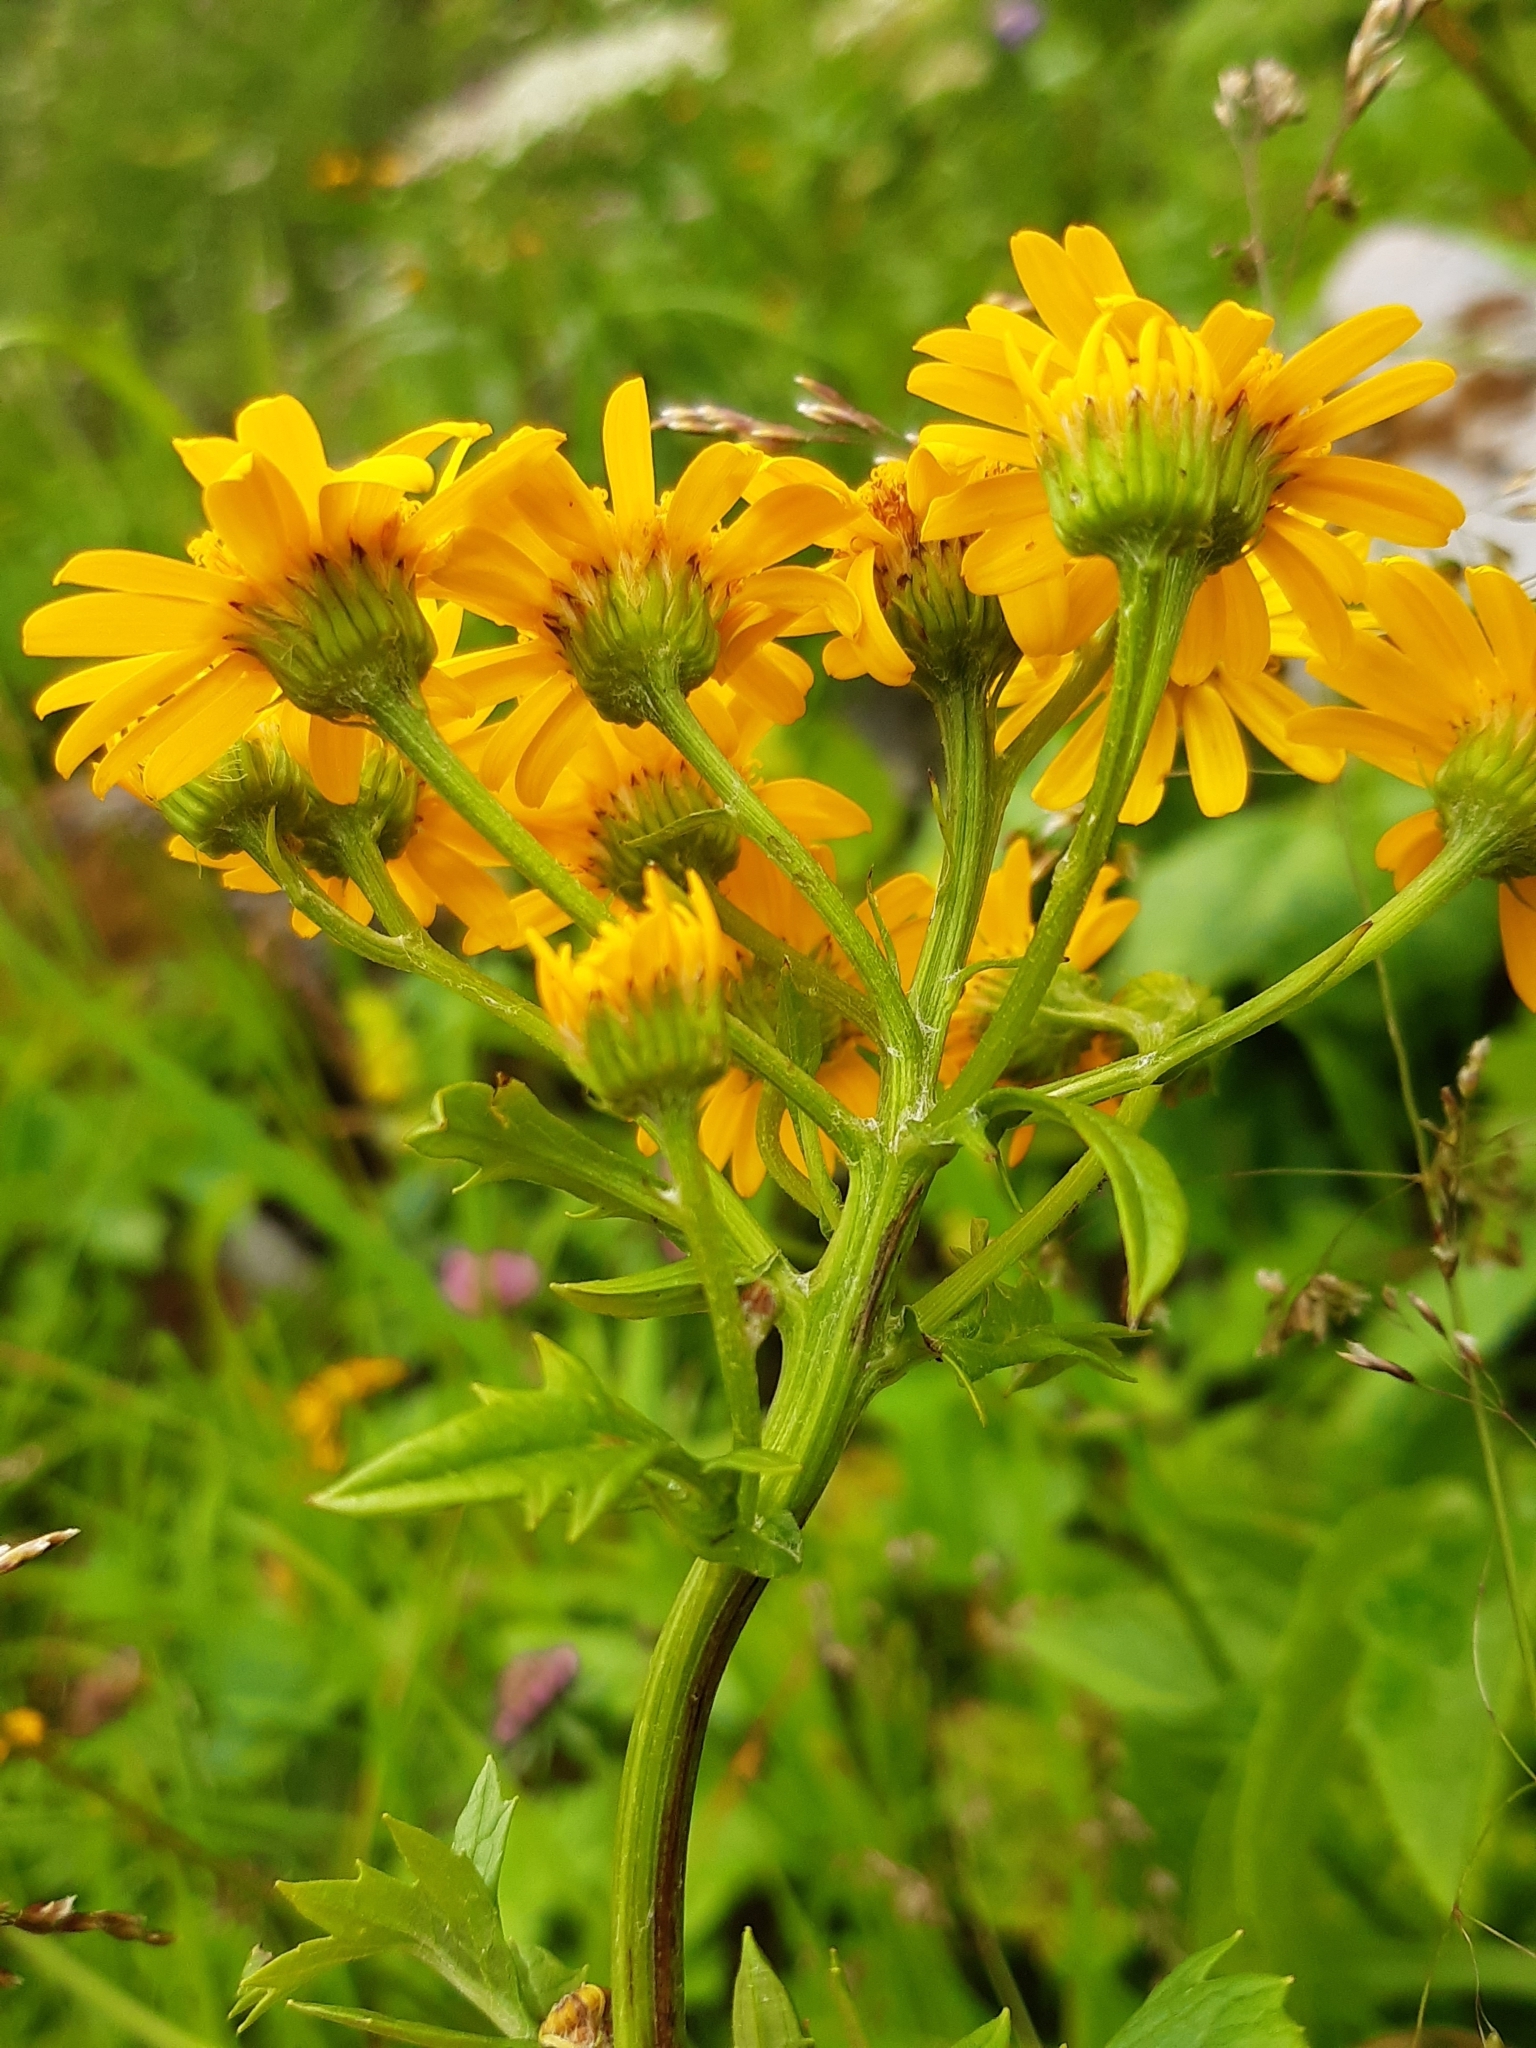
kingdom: Plantae
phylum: Tracheophyta
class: Magnoliopsida
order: Asterales
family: Asteraceae
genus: Jacobaea
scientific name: Jacobaea subalpina
